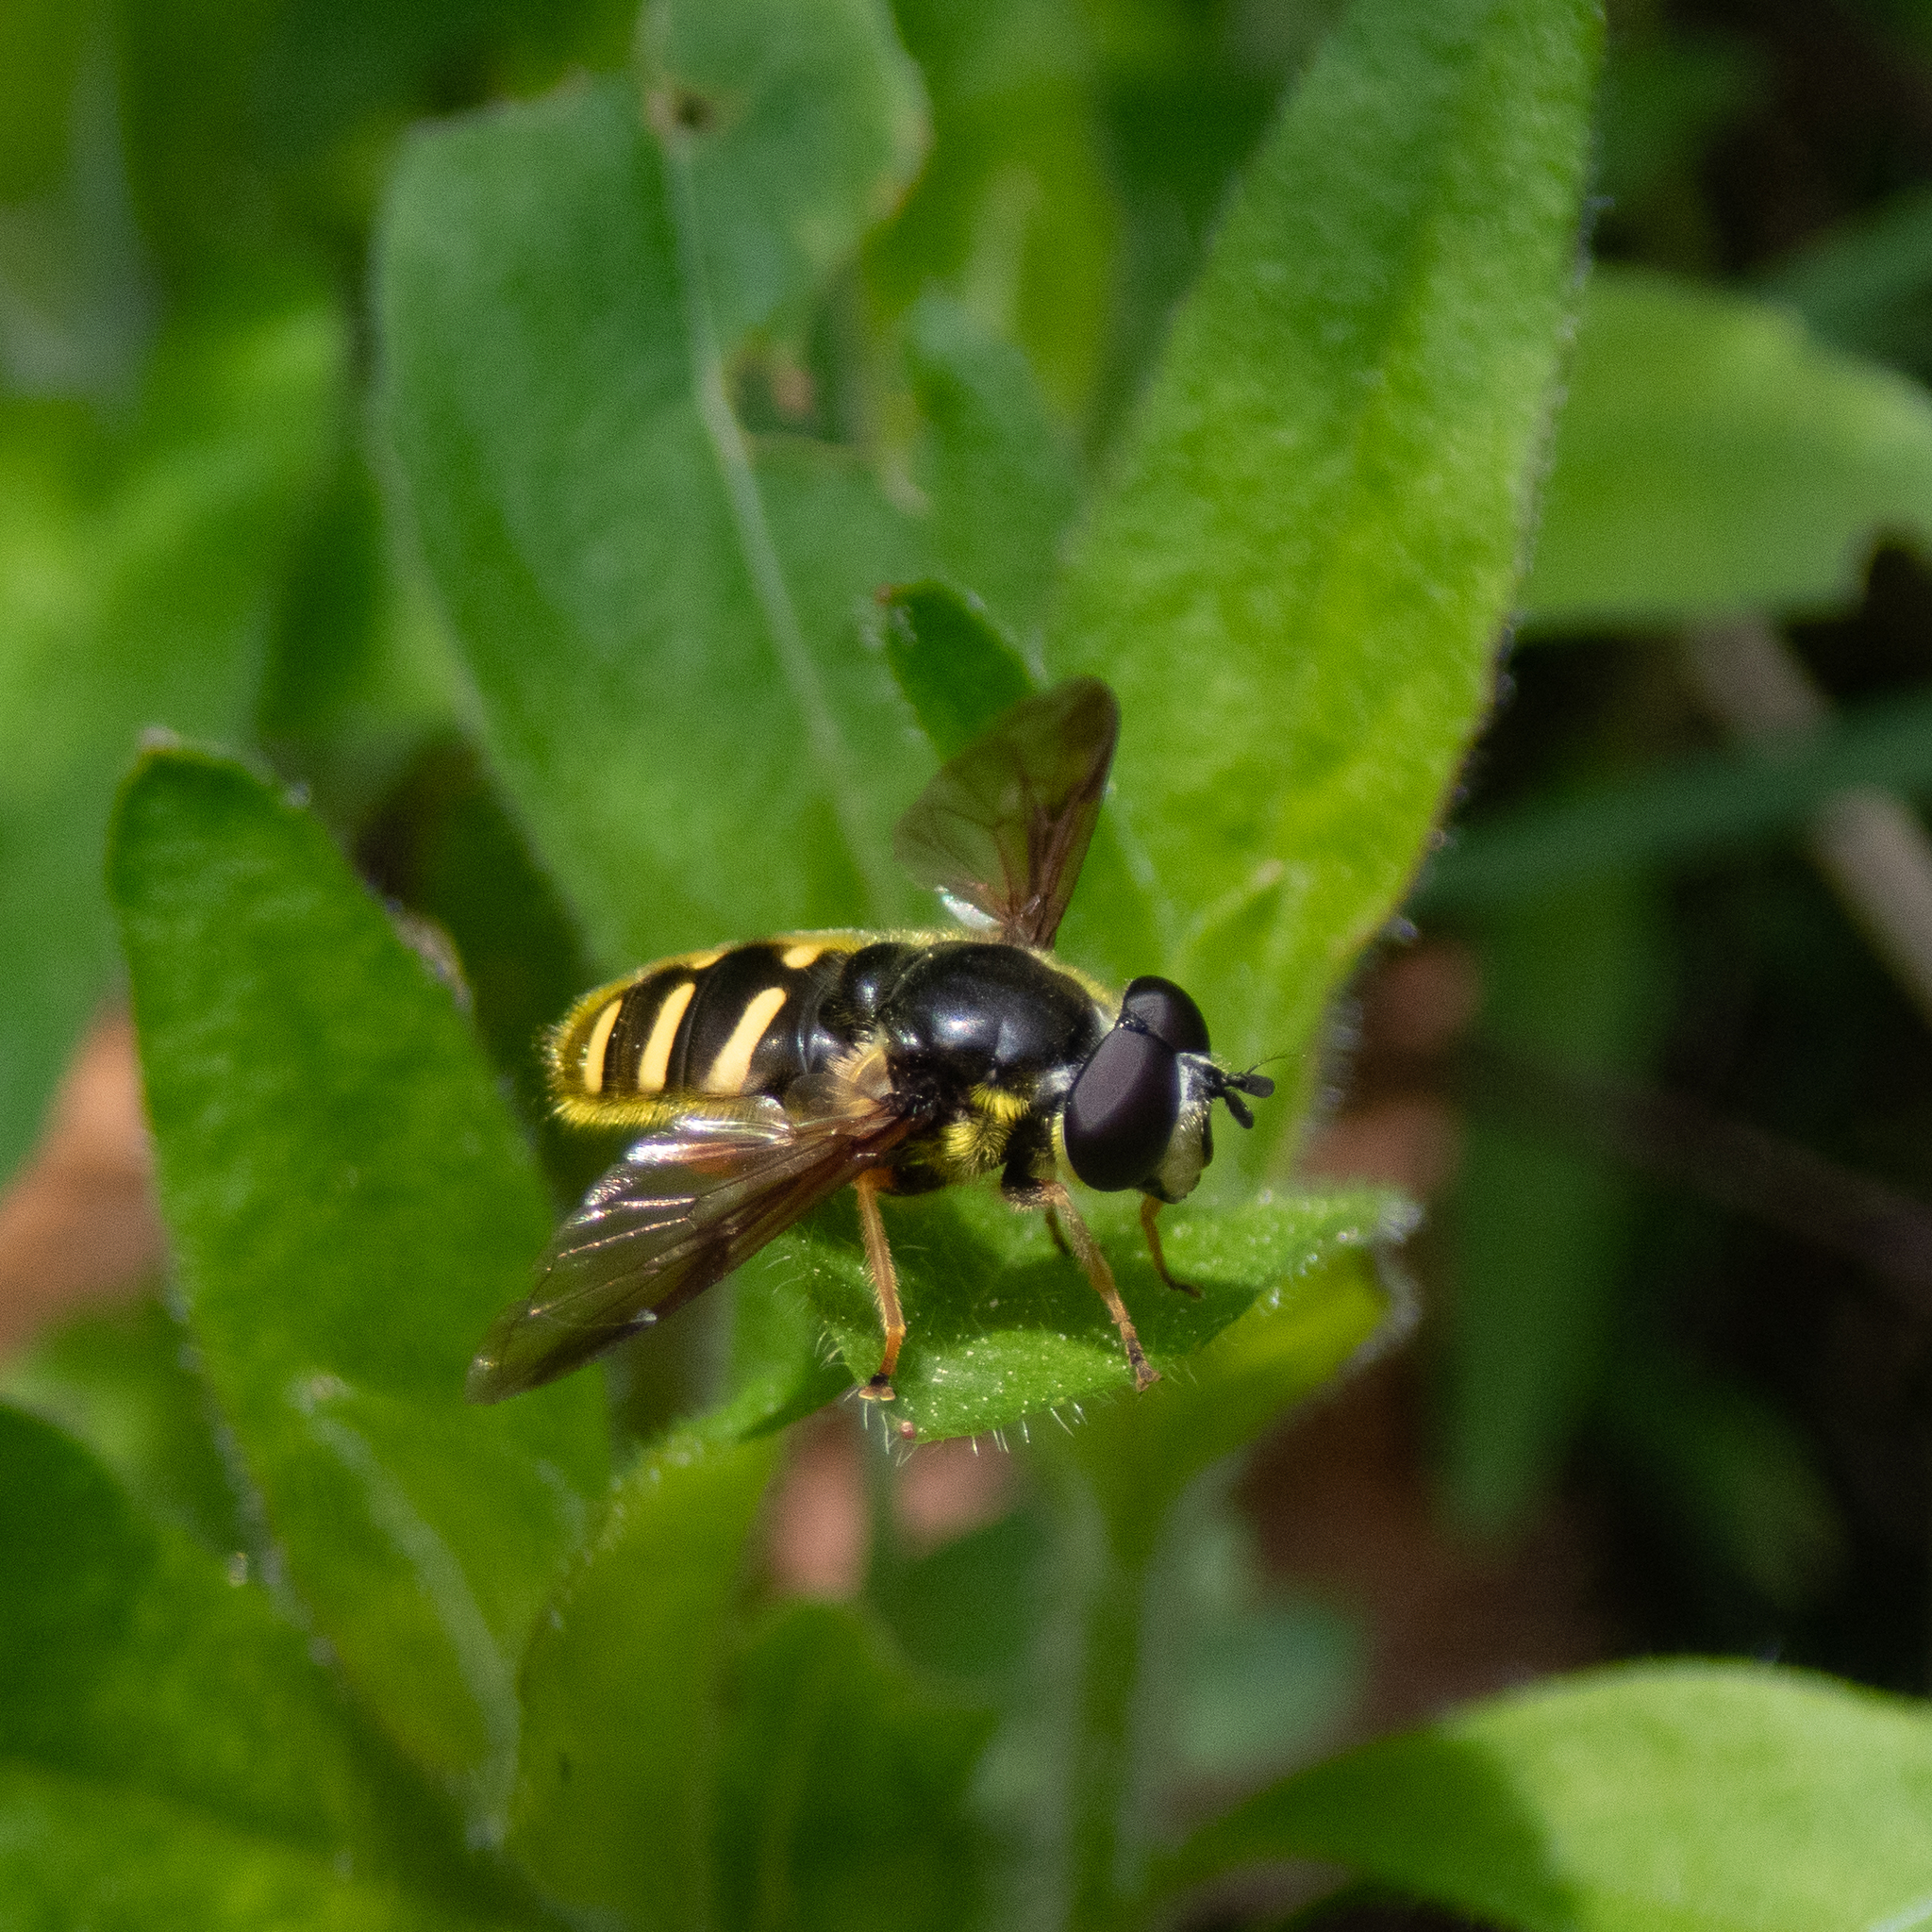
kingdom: Animalia
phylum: Arthropoda
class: Insecta
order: Diptera
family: Syrphidae
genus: Sericomyia
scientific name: Sericomyia chrysotoxoides
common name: Oblique-banded pond fly
